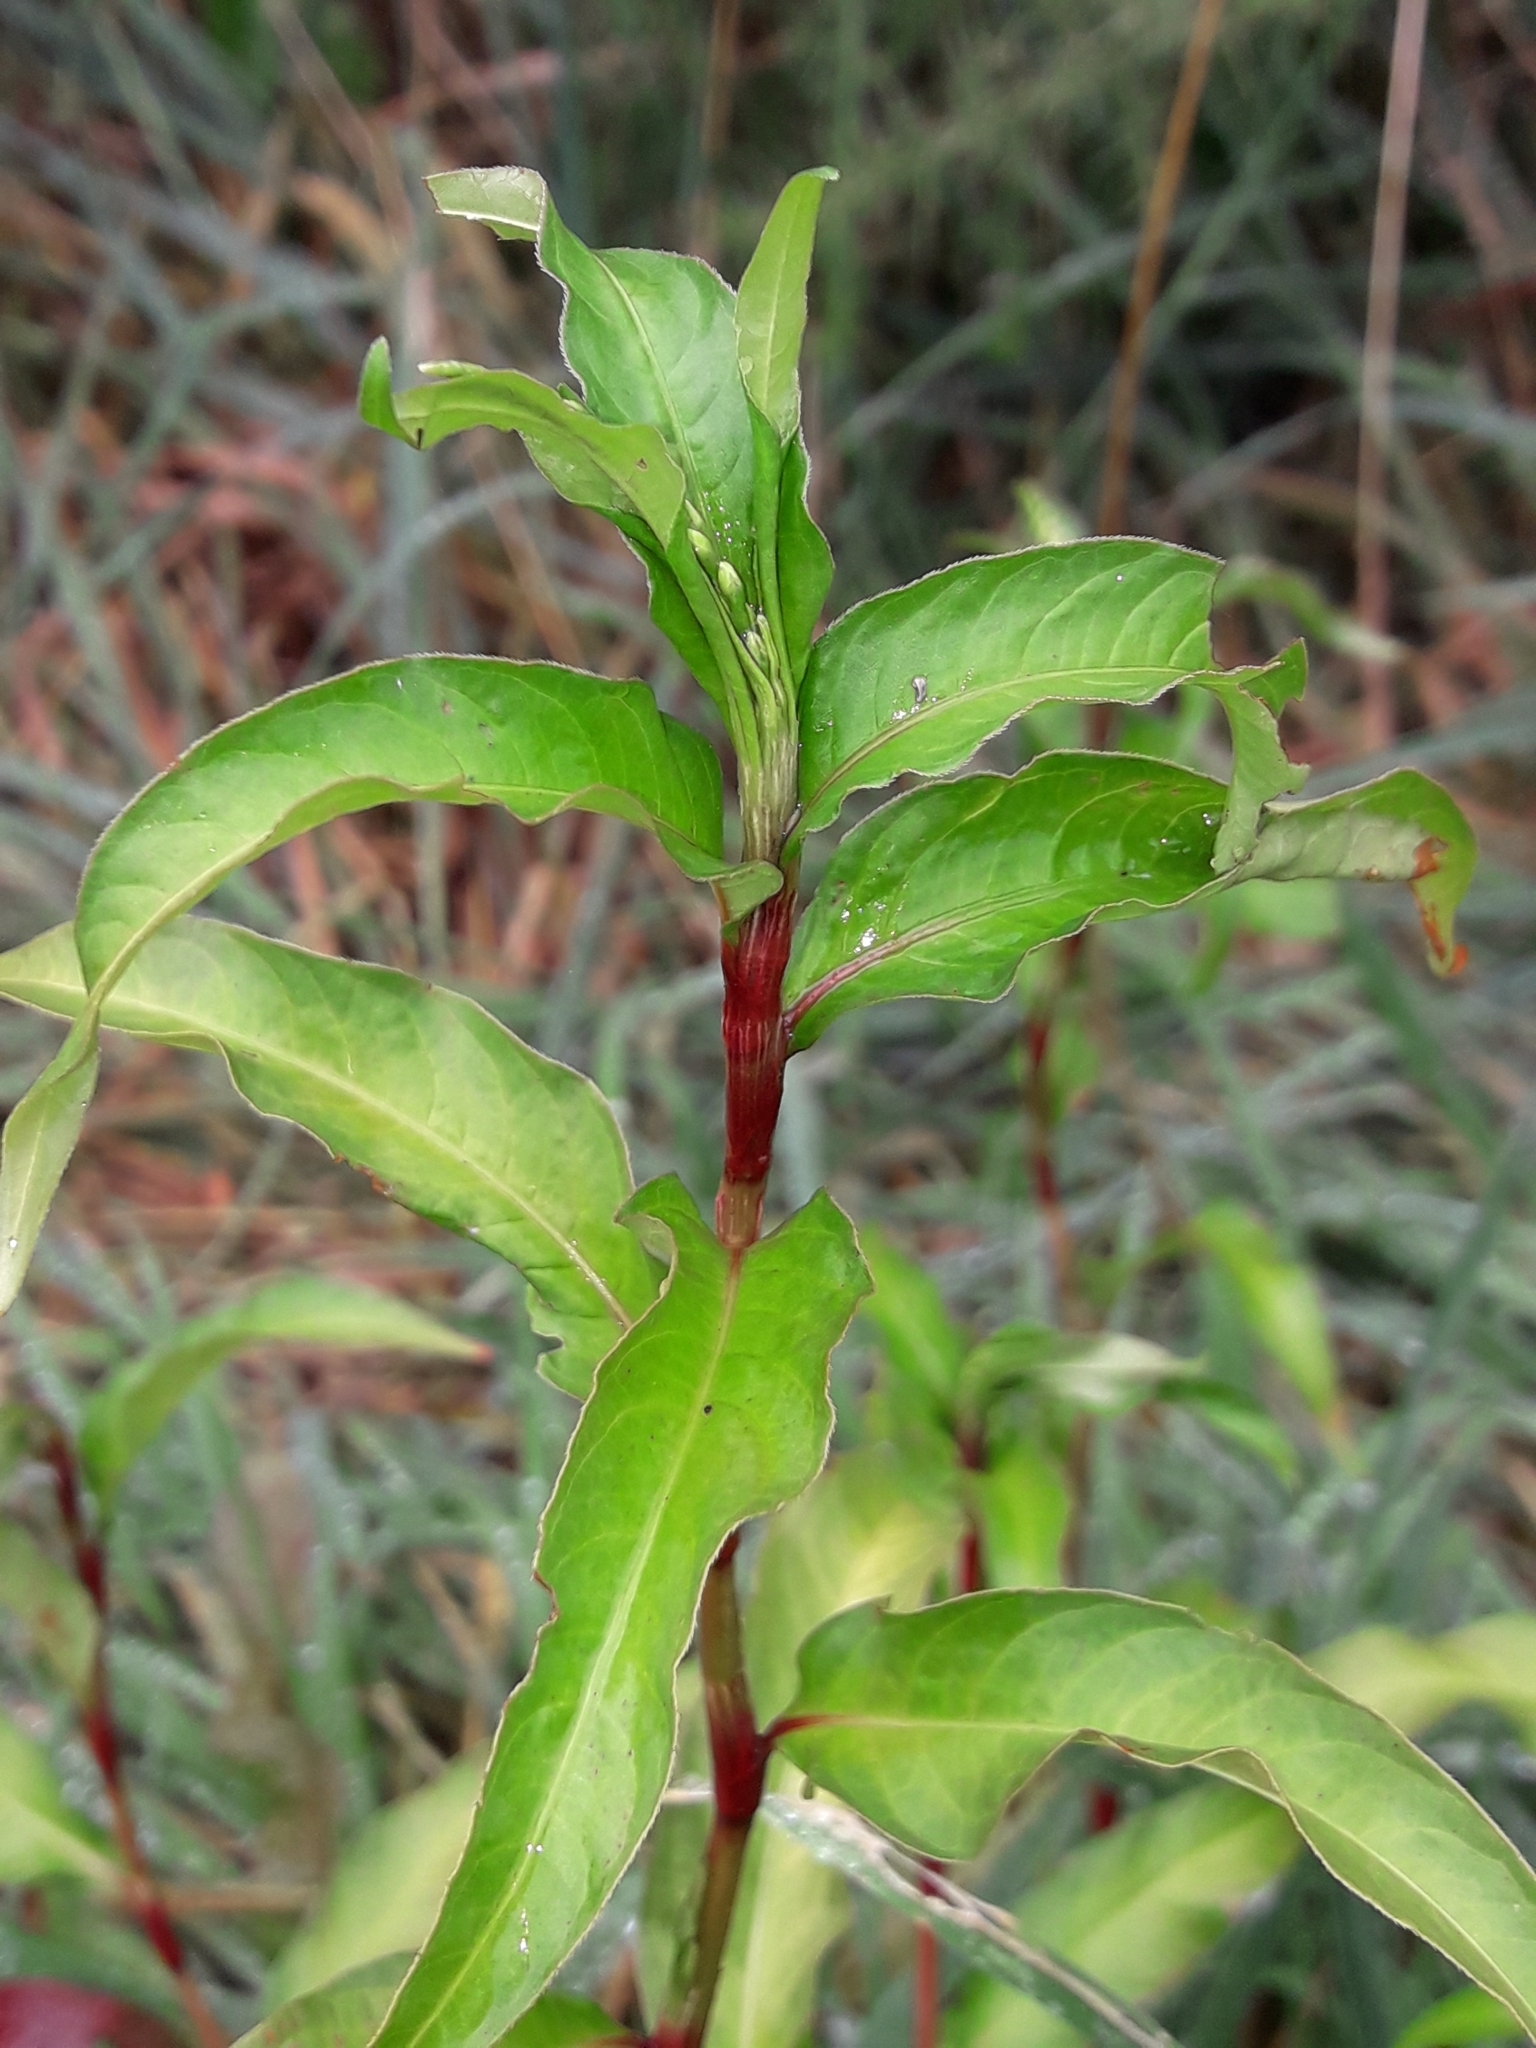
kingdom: Plantae
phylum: Tracheophyta
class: Magnoliopsida
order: Caryophyllales
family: Polygonaceae
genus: Persicaria
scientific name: Persicaria hydropiper
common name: Water-pepper
